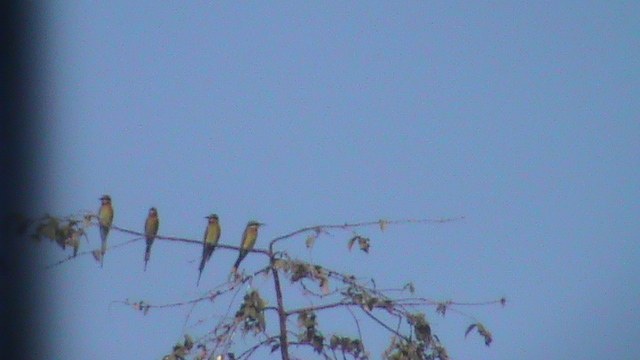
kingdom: Animalia
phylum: Chordata
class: Aves
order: Coraciiformes
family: Meropidae
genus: Merops
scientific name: Merops philippinus
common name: Blue-tailed bee-eater
